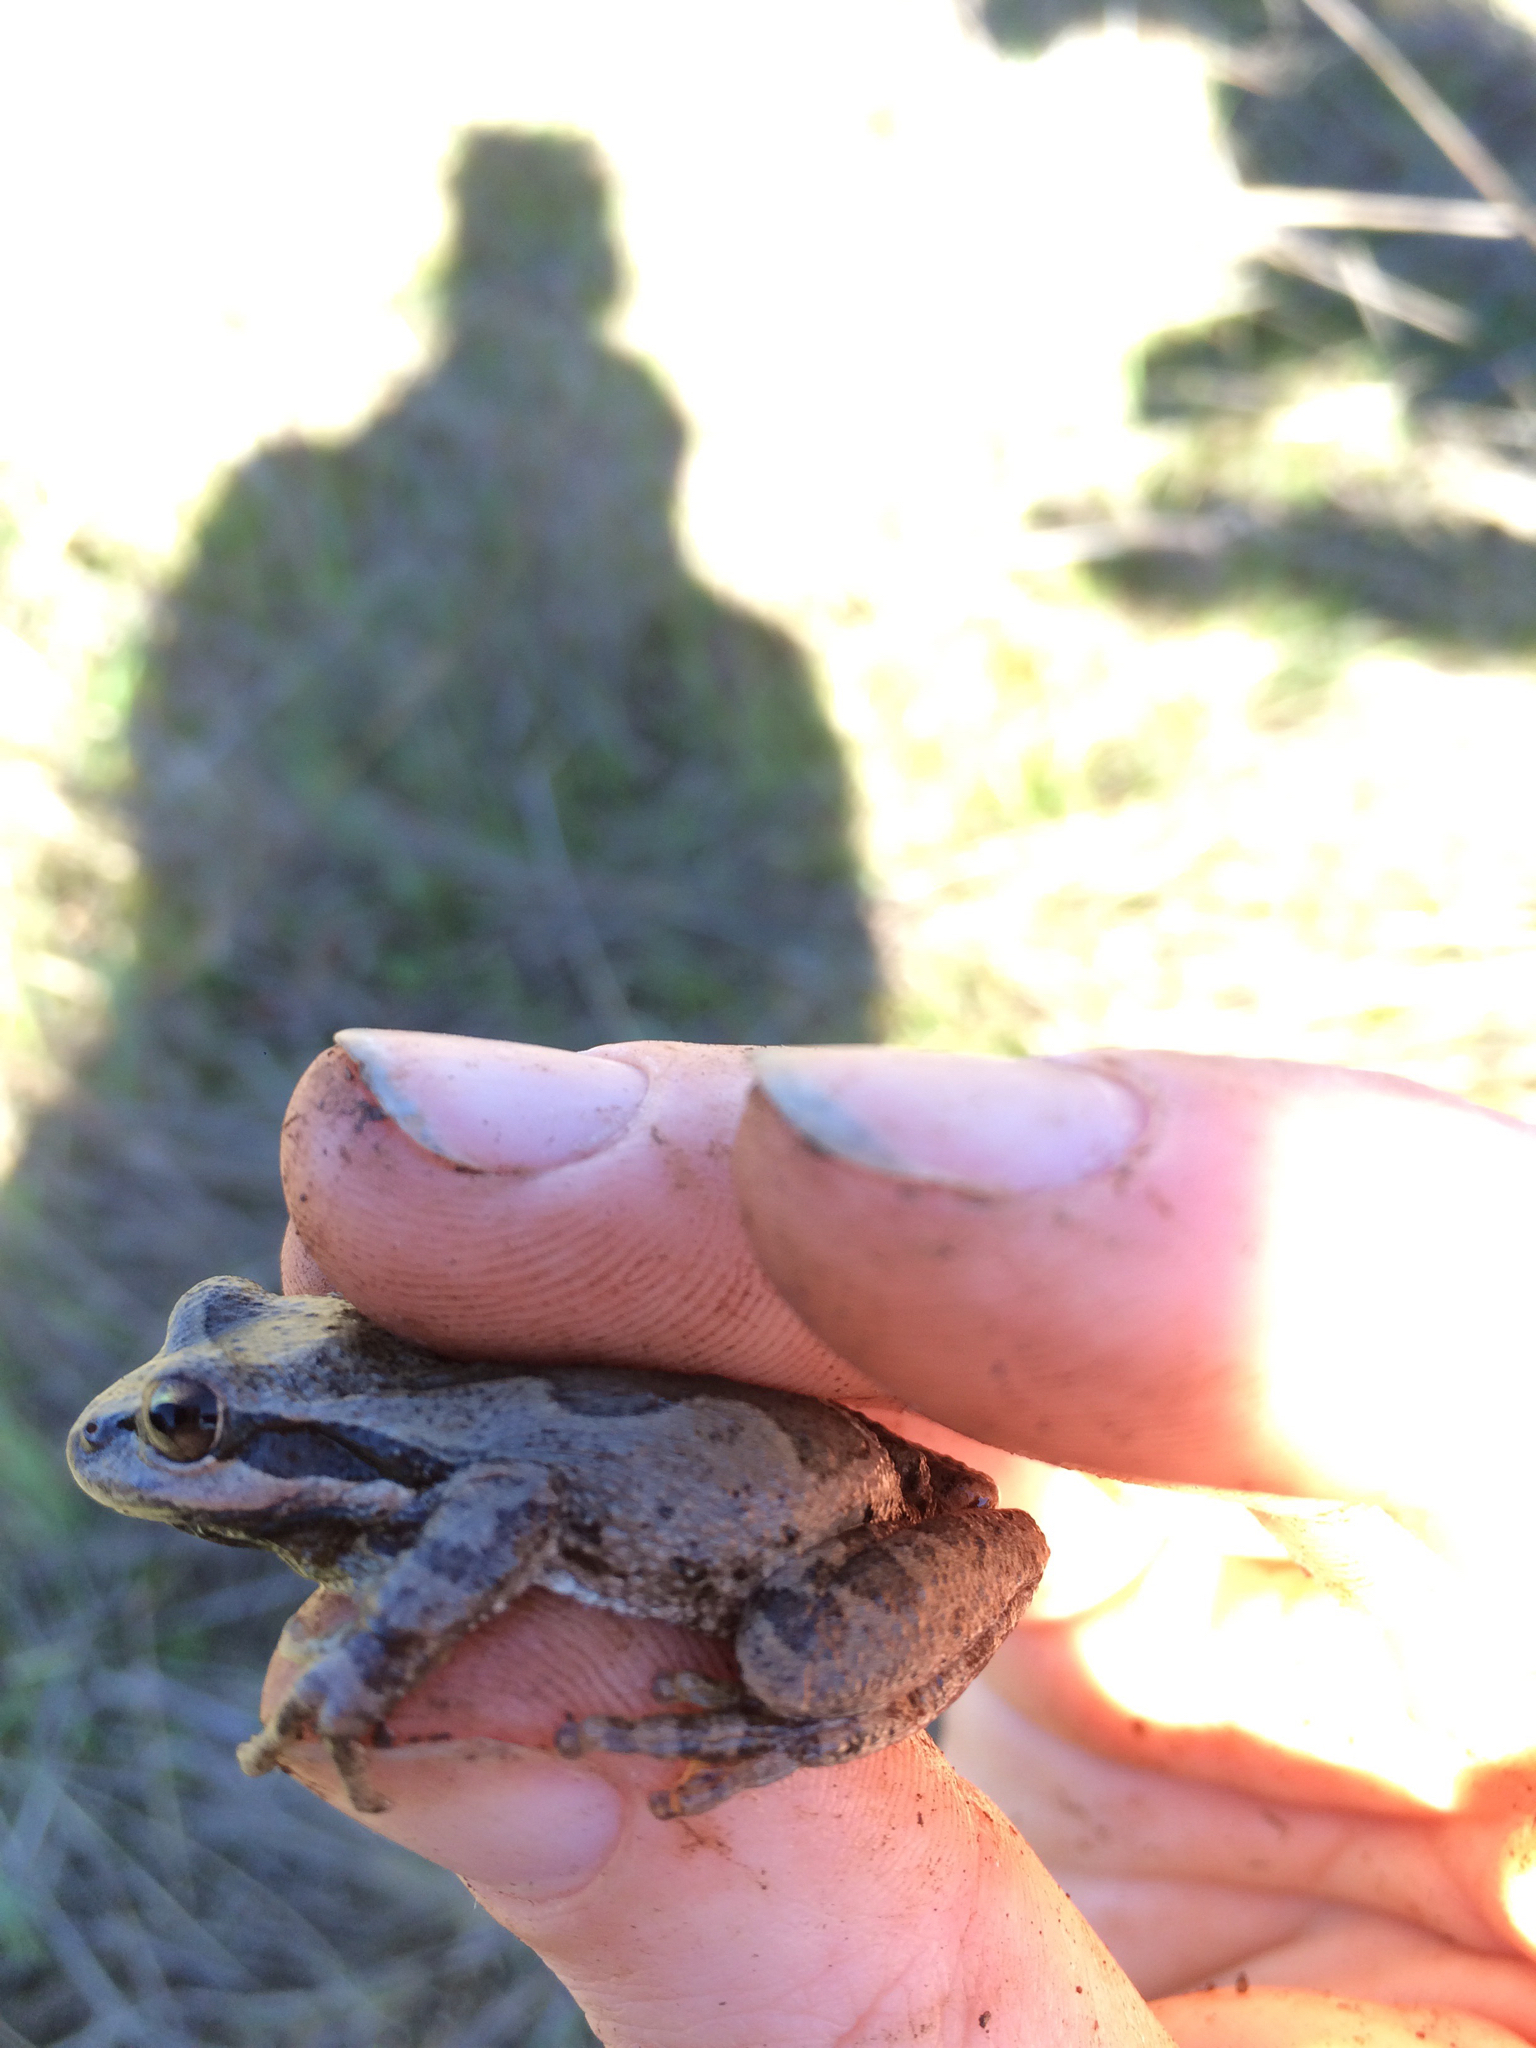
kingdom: Animalia
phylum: Chordata
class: Amphibia
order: Anura
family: Hylidae
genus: Pseudacris
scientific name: Pseudacris regilla
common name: Pacific chorus frog
